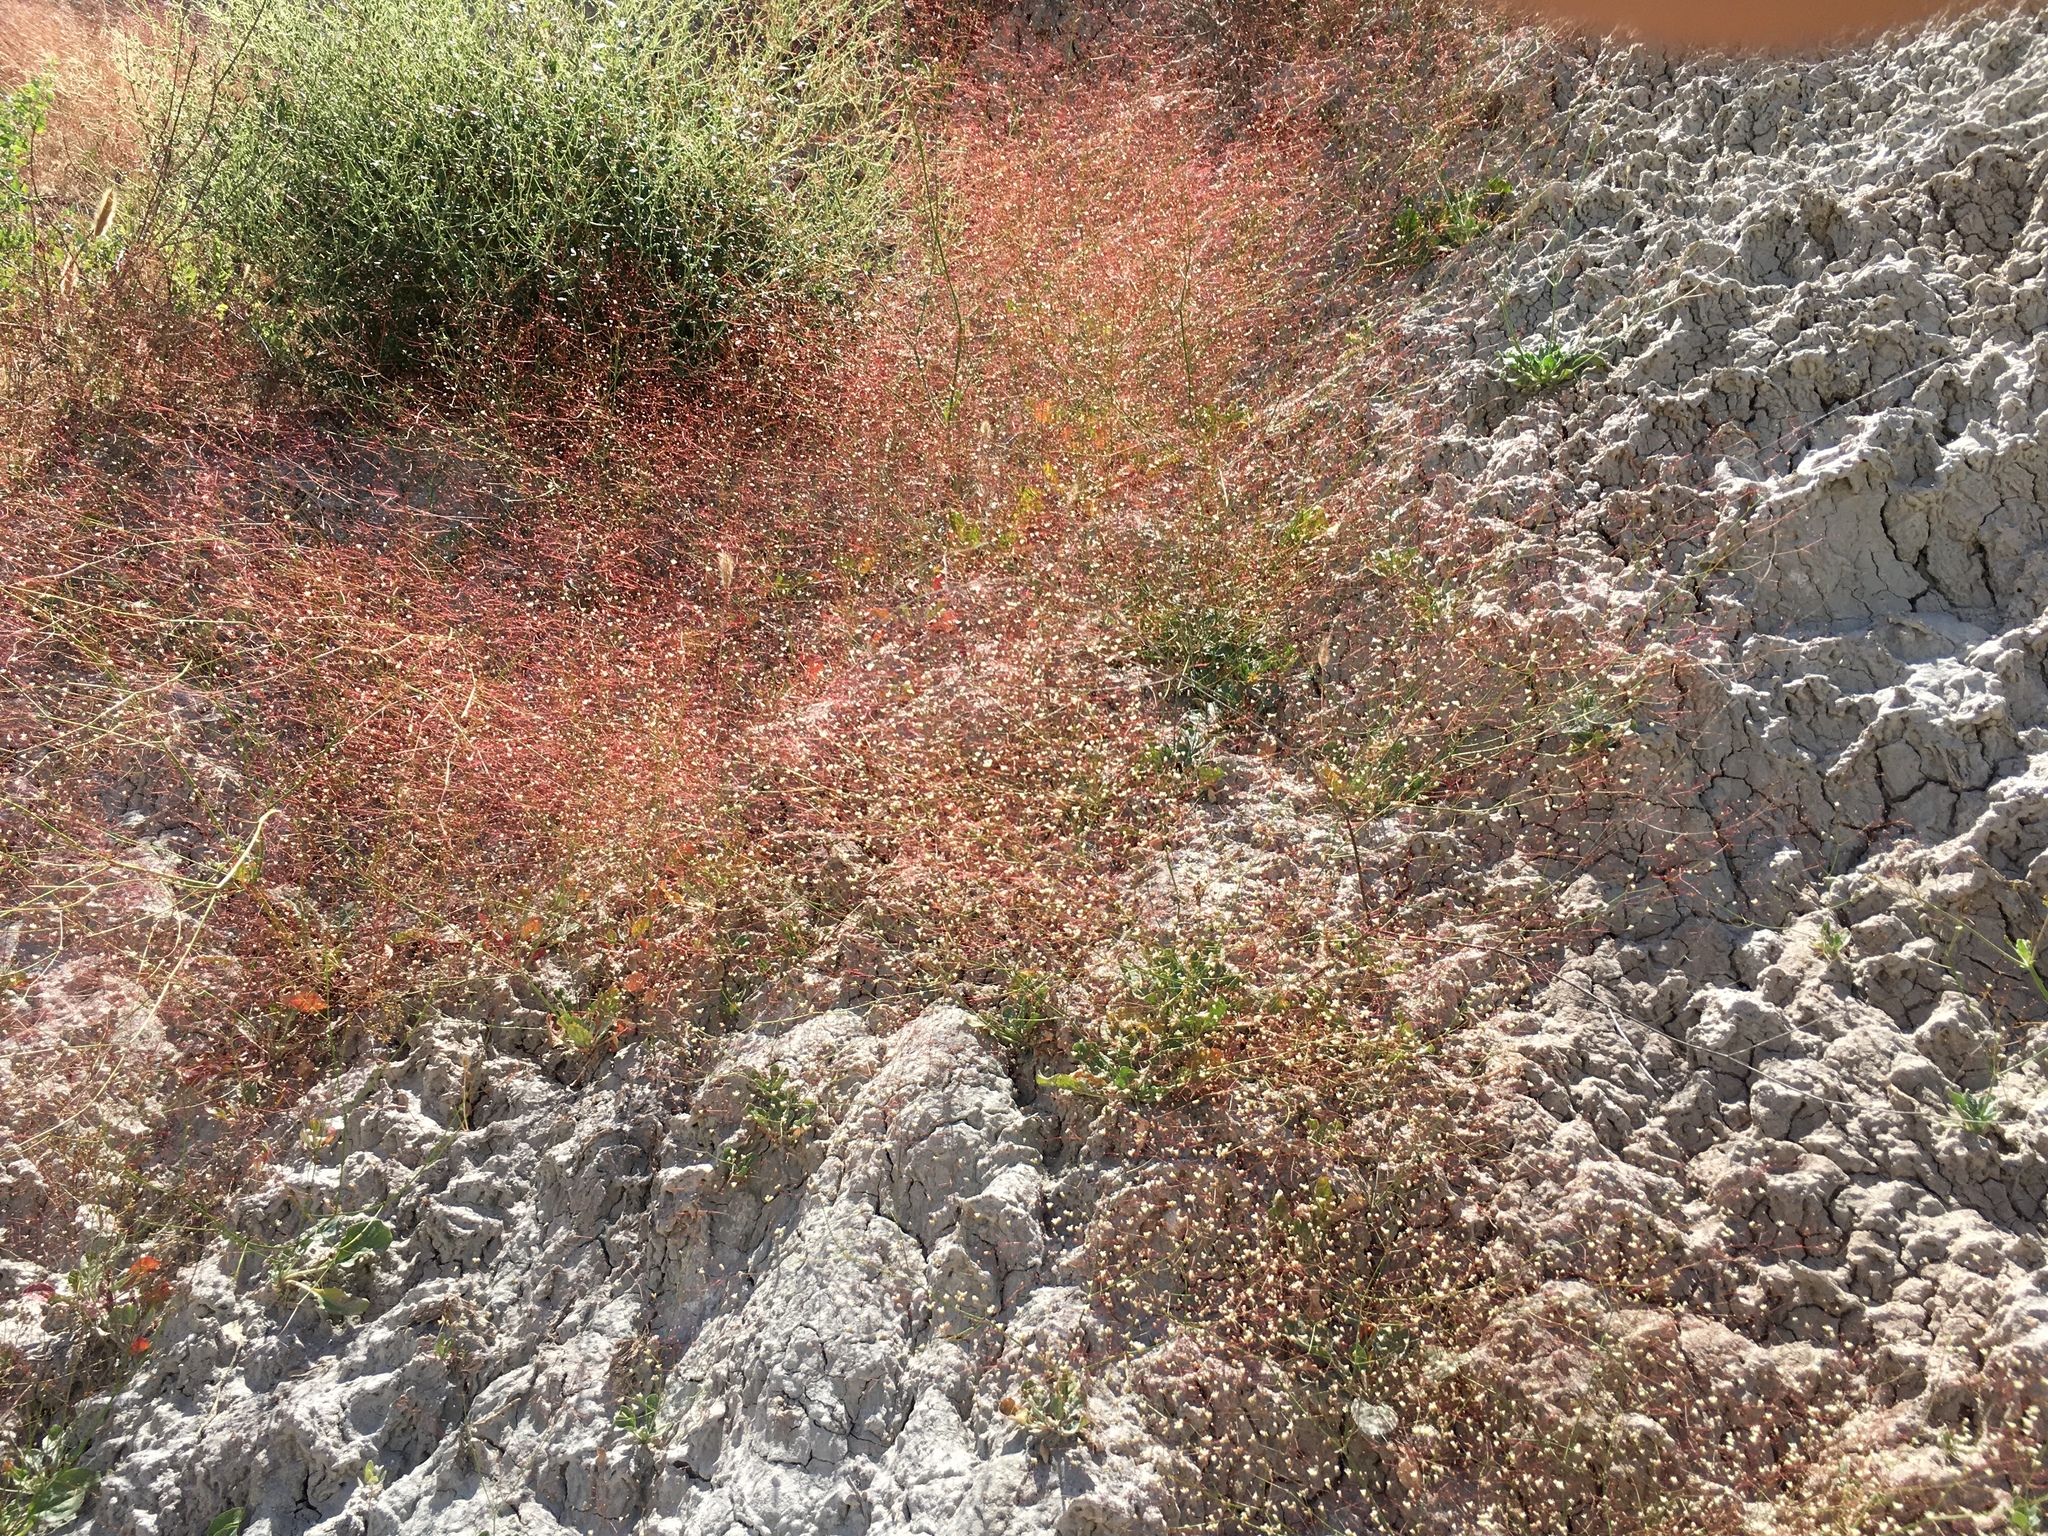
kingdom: Plantae
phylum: Tracheophyta
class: Magnoliopsida
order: Caryophyllales
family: Polygonaceae
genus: Eriogonum
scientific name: Eriogonum ordii
